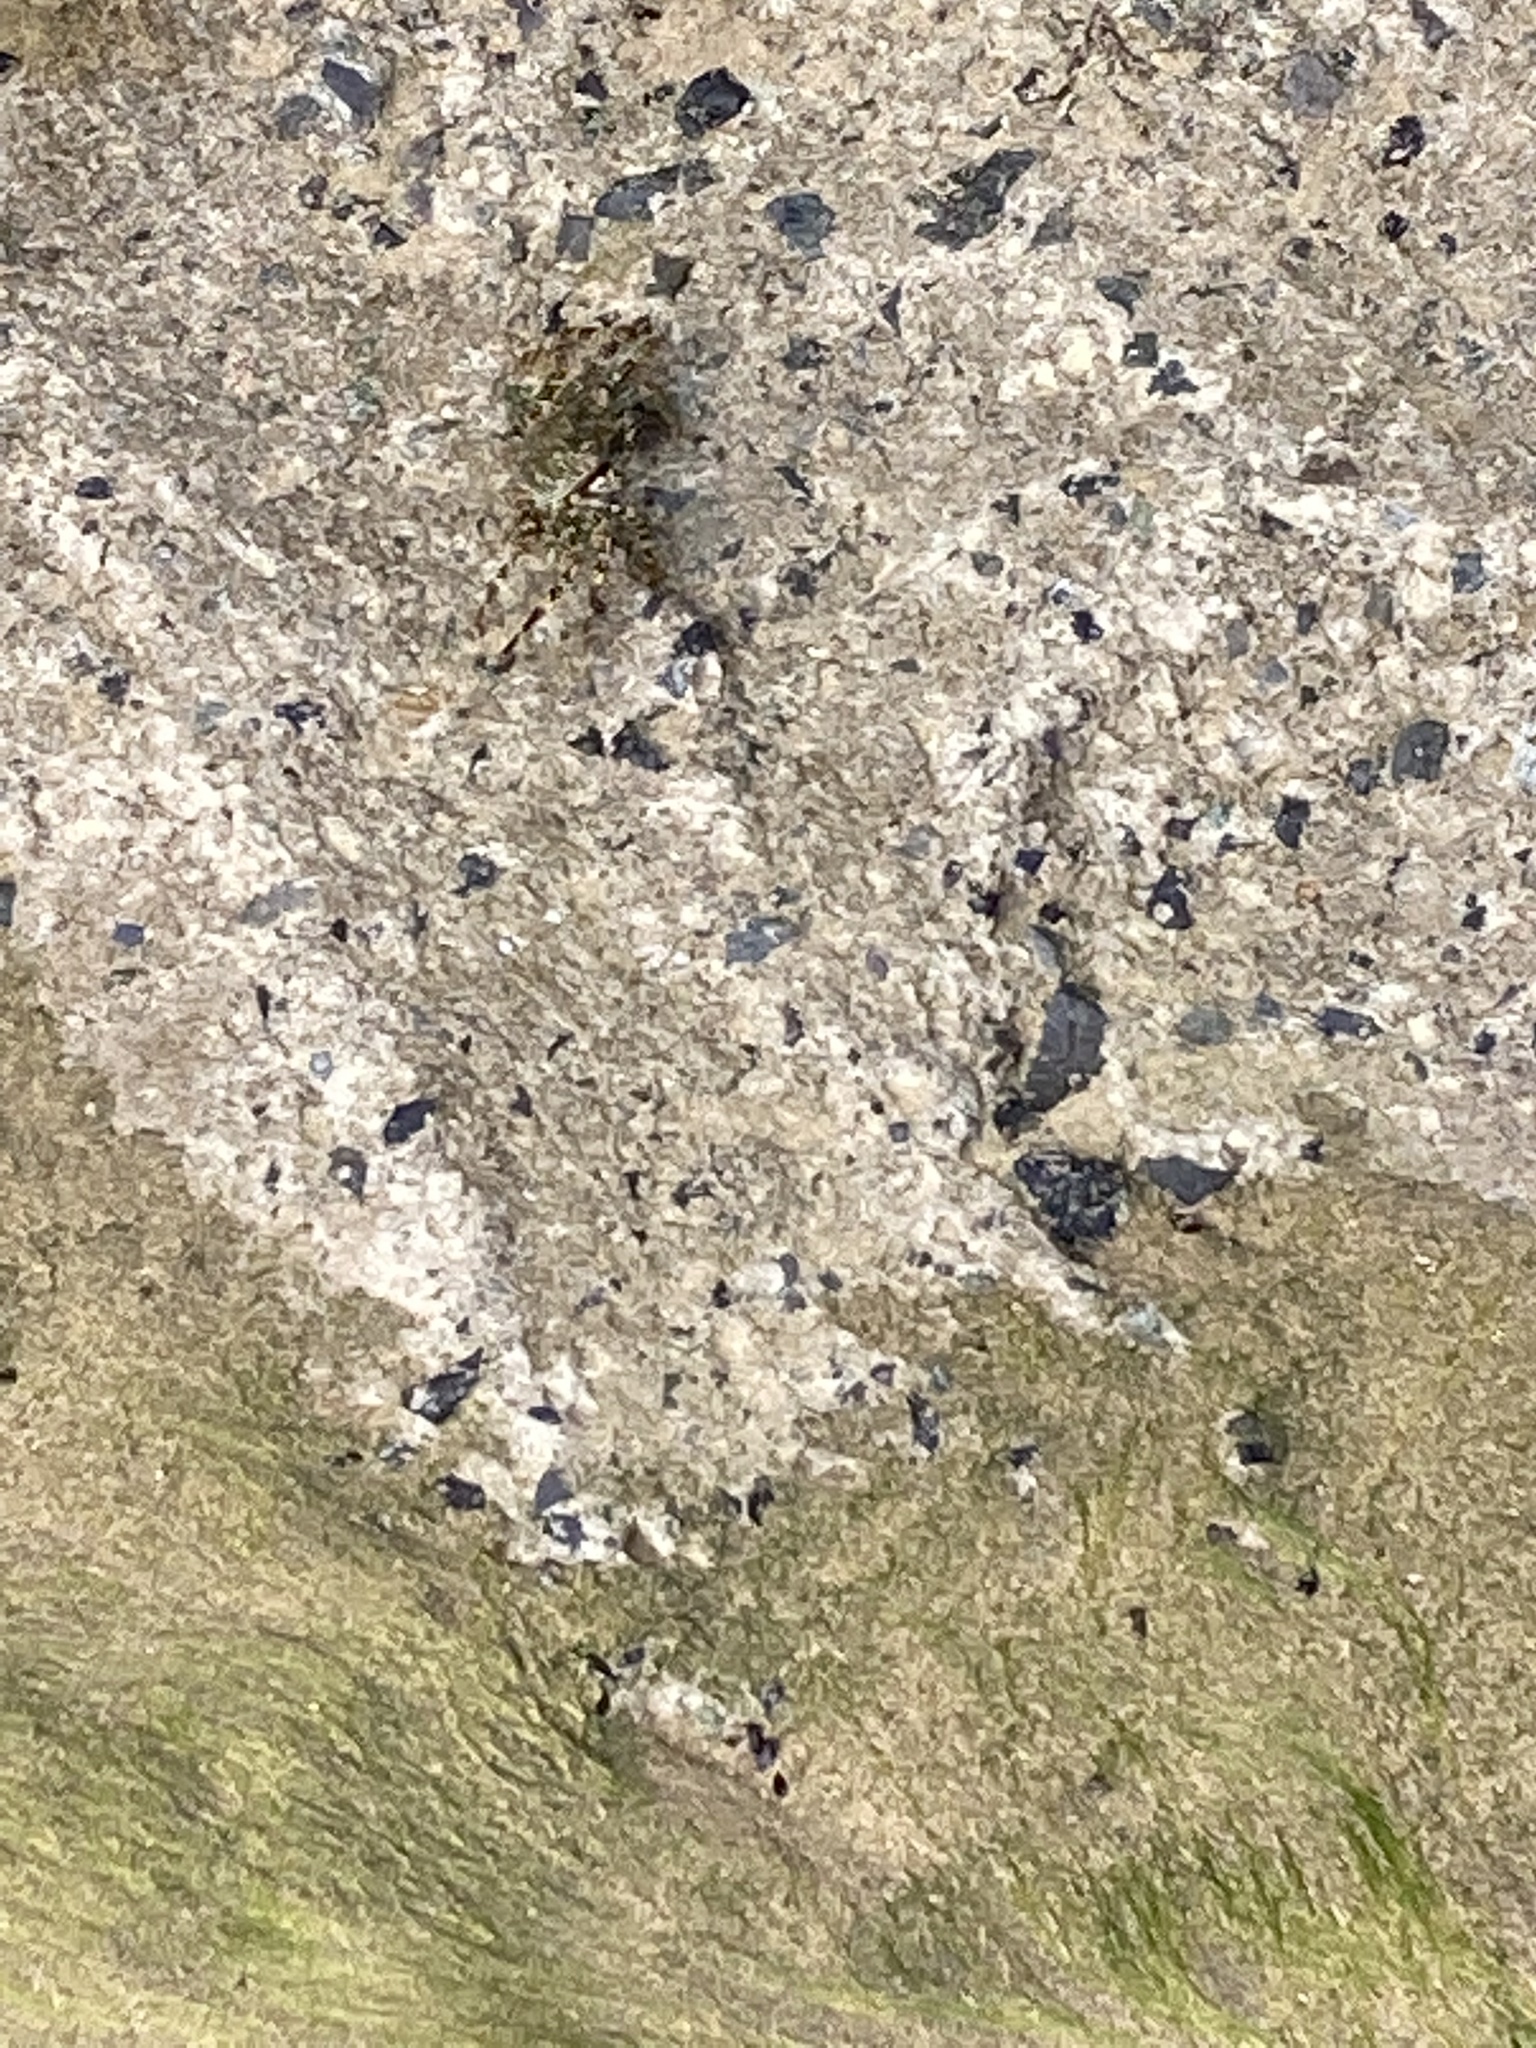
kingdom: Animalia
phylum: Arthropoda
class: Malacostraca
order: Decapoda
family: Grapsidae
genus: Grapsus
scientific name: Grapsus grapsus
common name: Sally lightfoot
